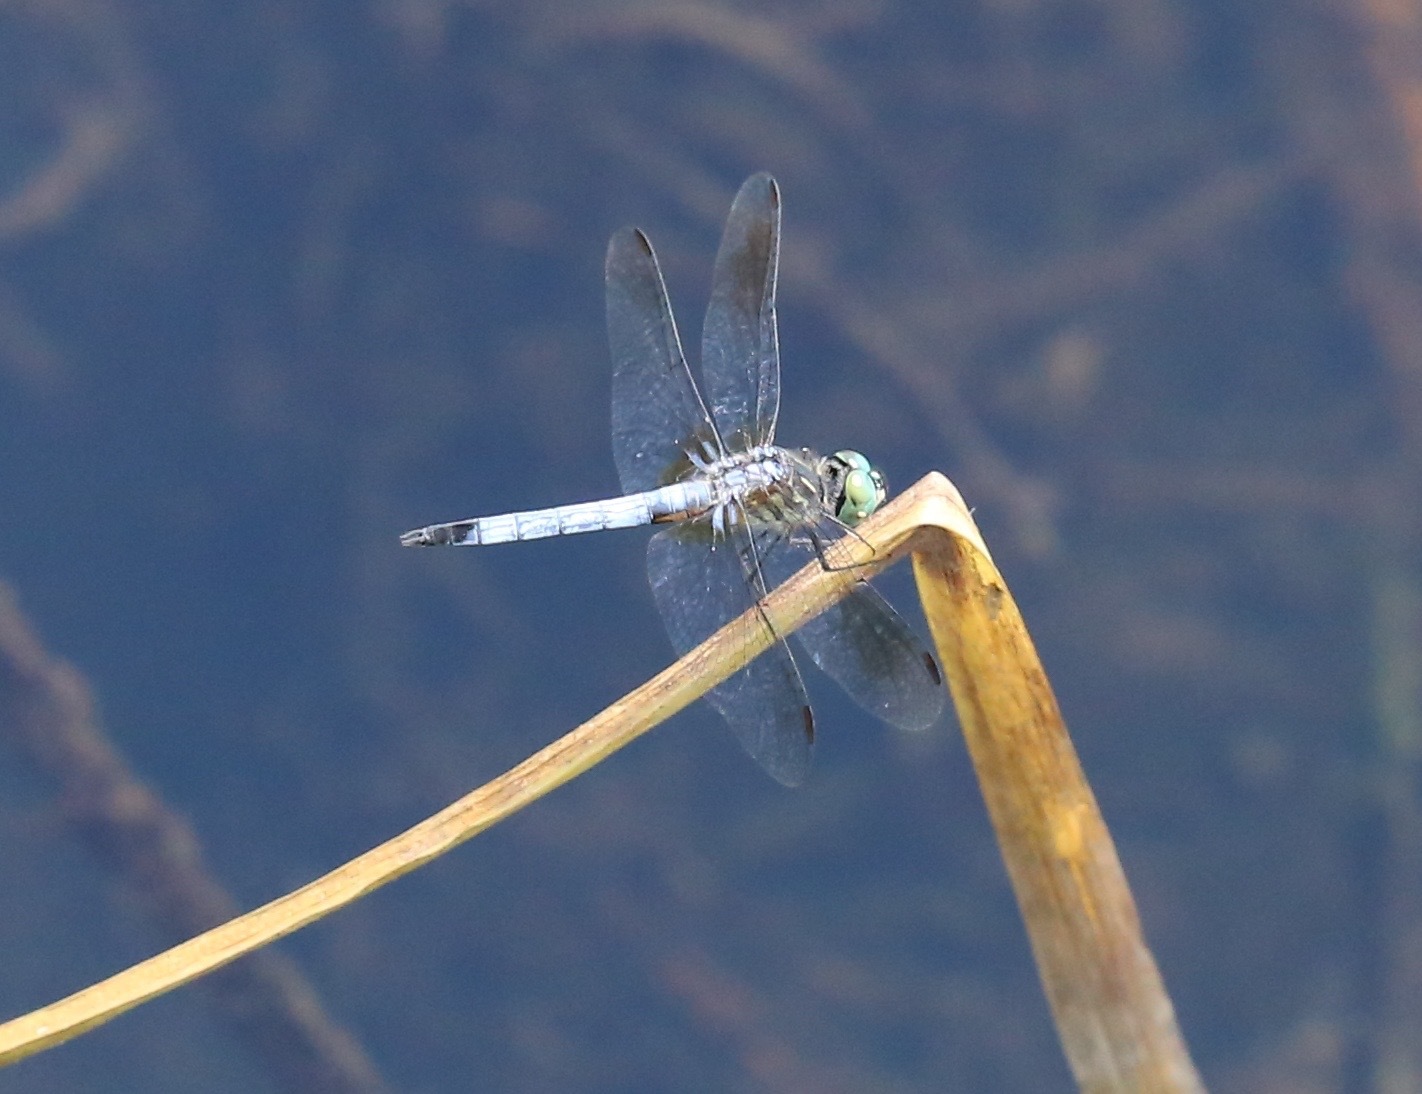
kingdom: Animalia
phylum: Arthropoda
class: Insecta
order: Odonata
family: Libellulidae
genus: Pachydiplax
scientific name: Pachydiplax longipennis
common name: Blue dasher
